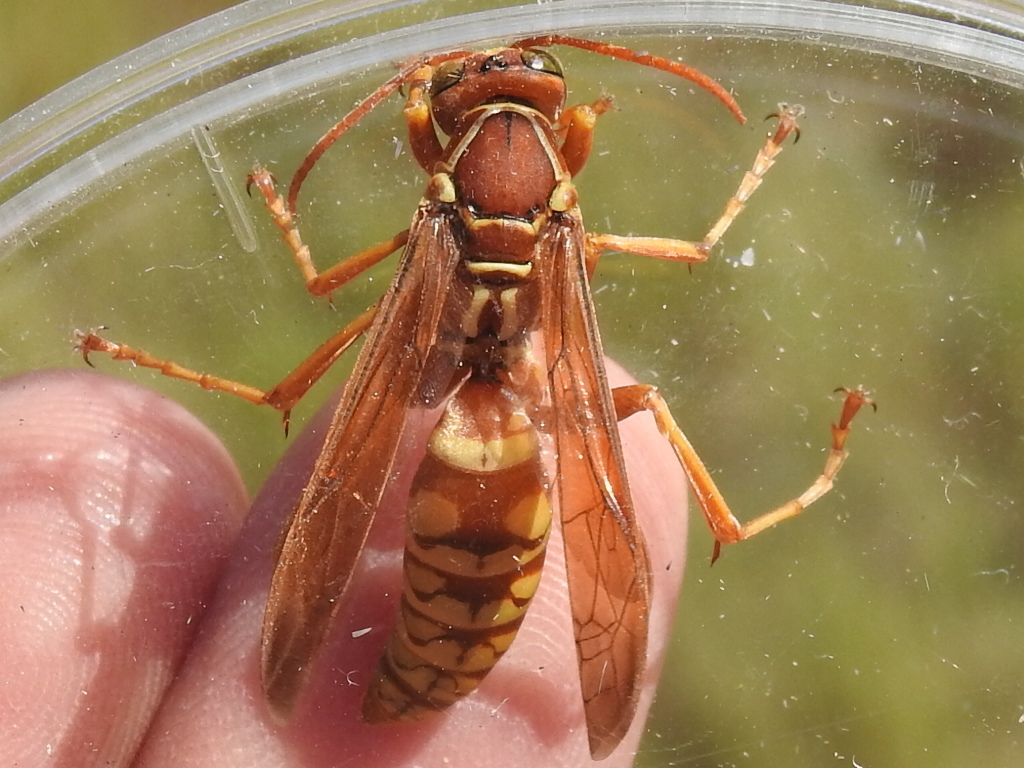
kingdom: Animalia
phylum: Arthropoda
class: Insecta
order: Hymenoptera
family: Eumenidae
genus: Polistes
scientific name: Polistes apachus
